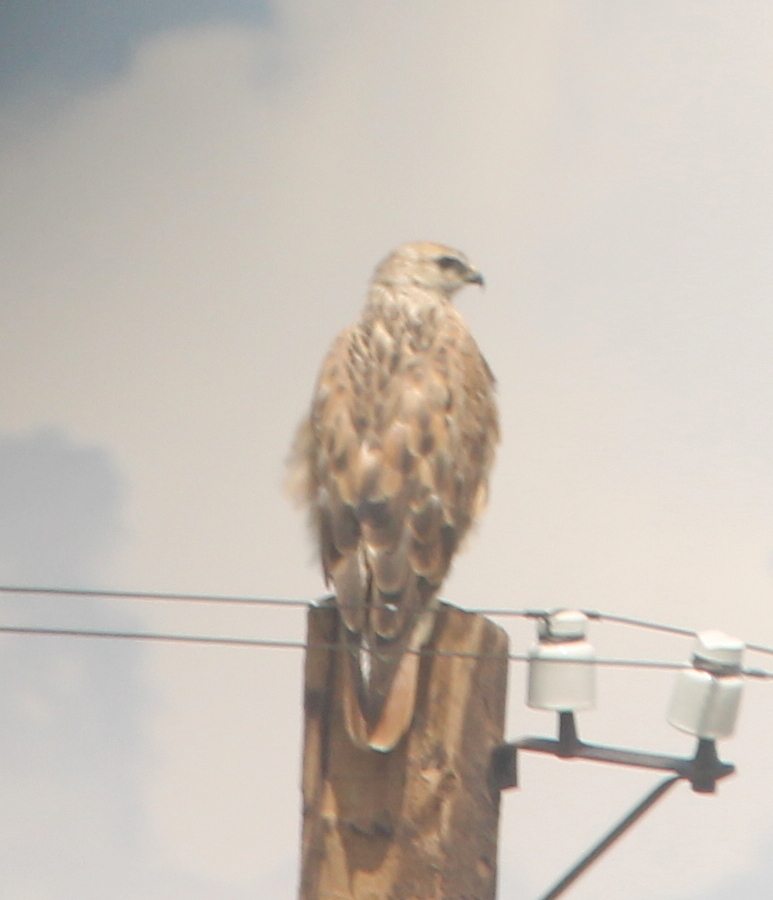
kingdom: Animalia
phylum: Chordata
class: Aves
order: Accipitriformes
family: Accipitridae
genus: Buteo
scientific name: Buteo rufinus
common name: Long-legged buzzard
